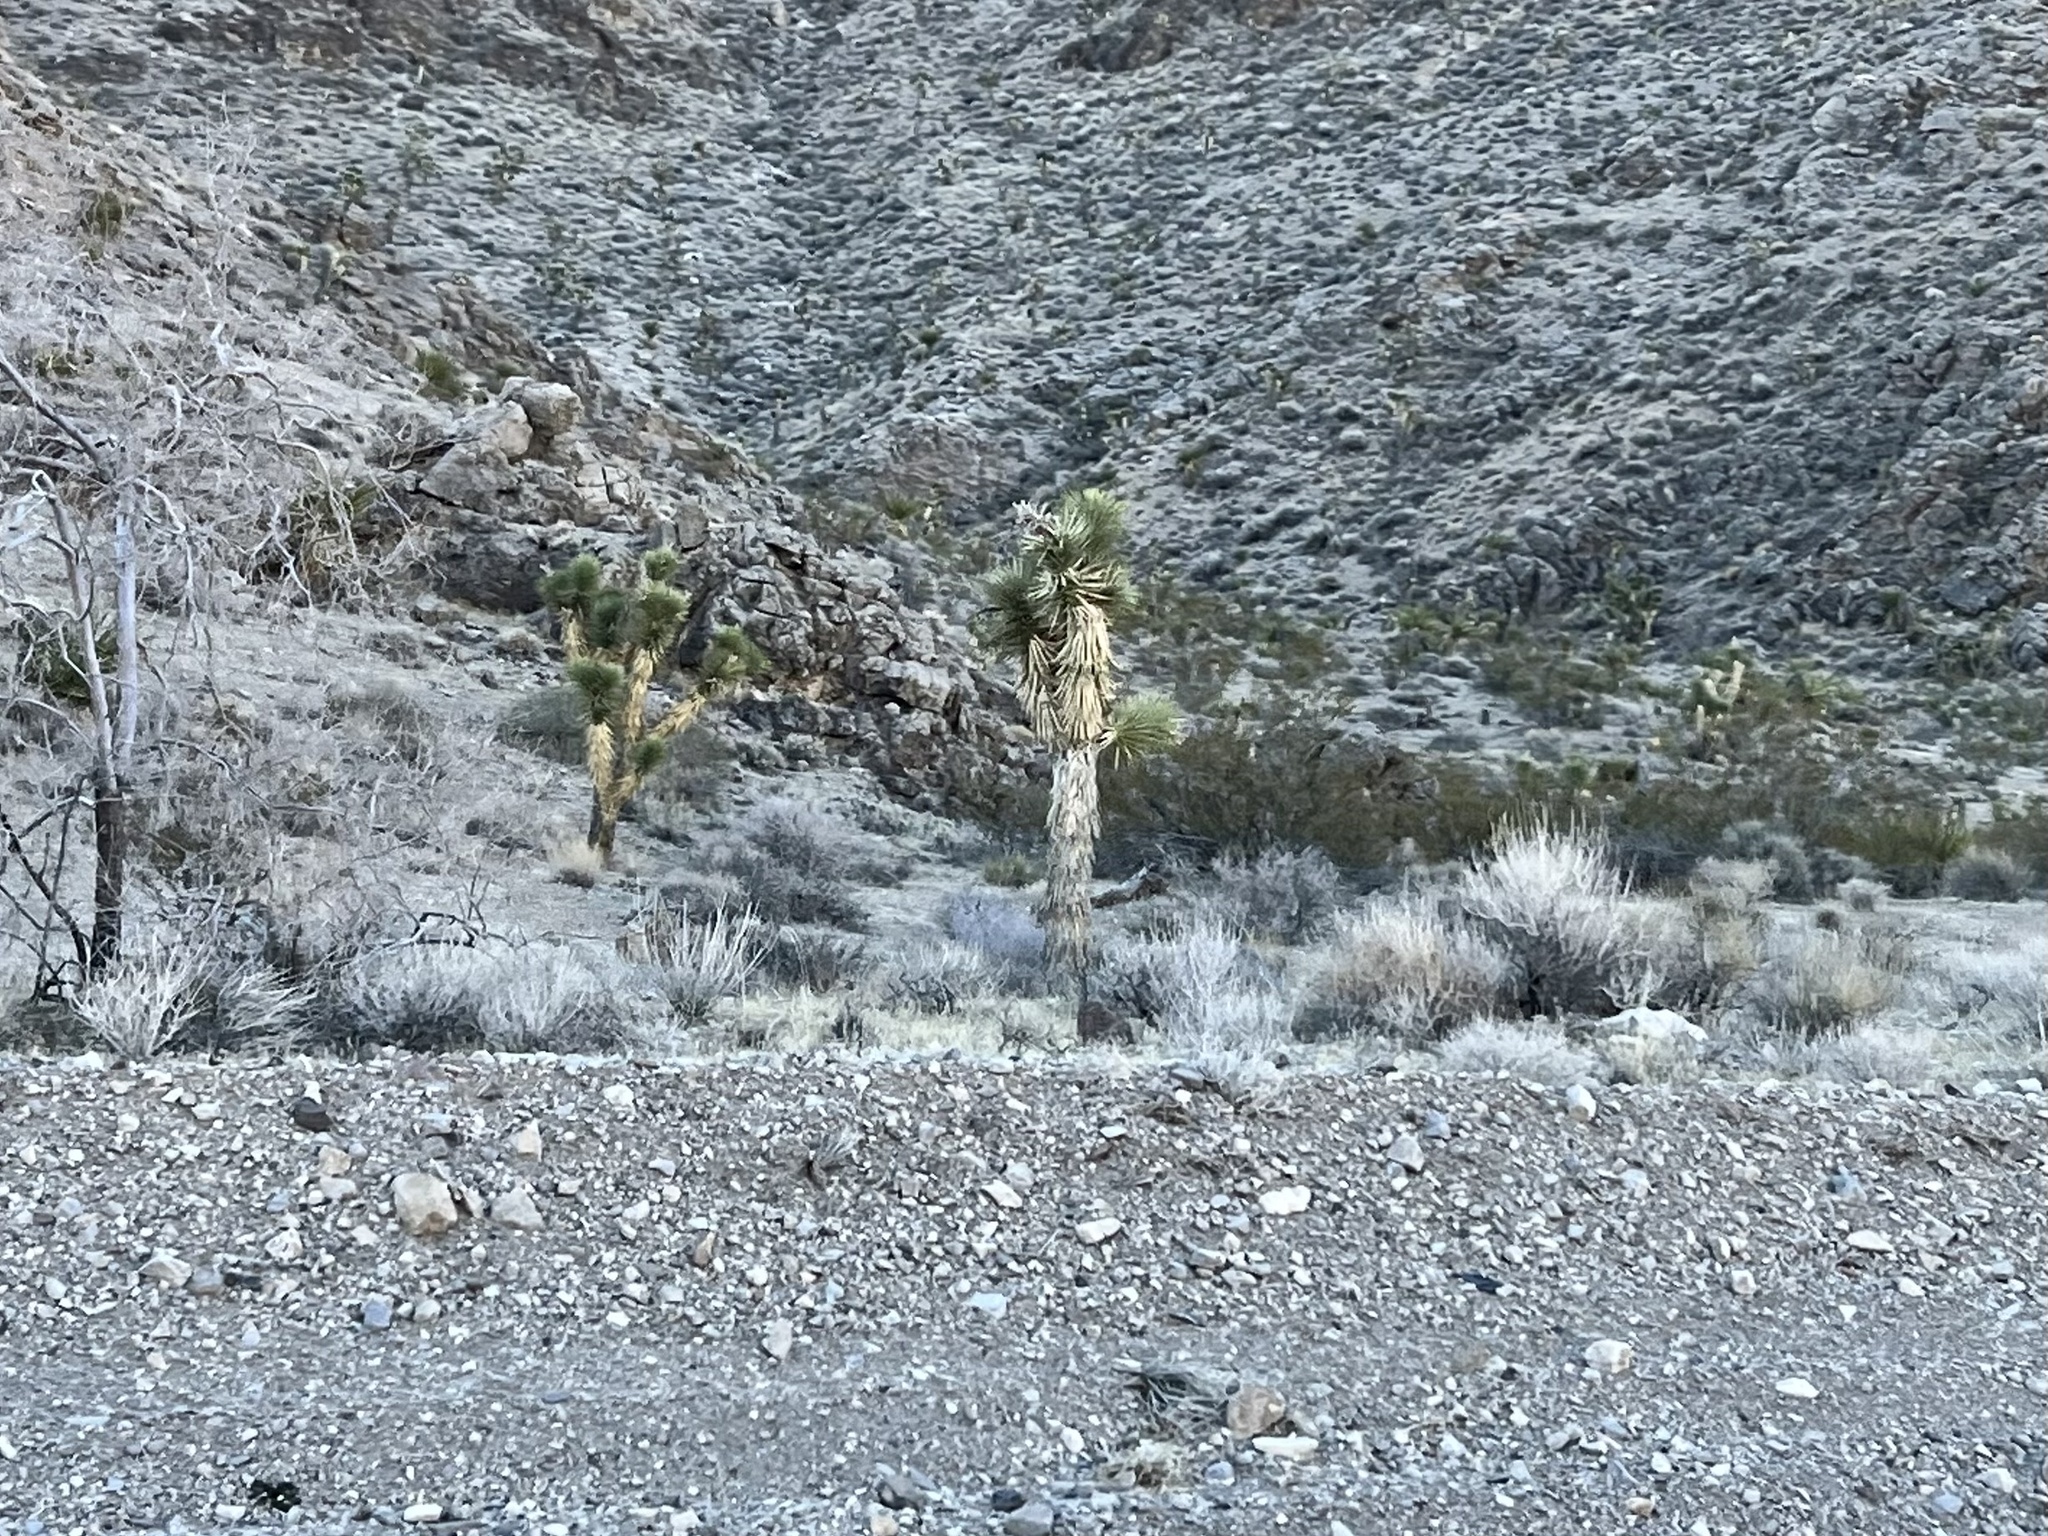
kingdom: Plantae
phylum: Tracheophyta
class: Liliopsida
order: Asparagales
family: Asparagaceae
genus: Yucca
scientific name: Yucca brevifolia
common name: Joshua tree
